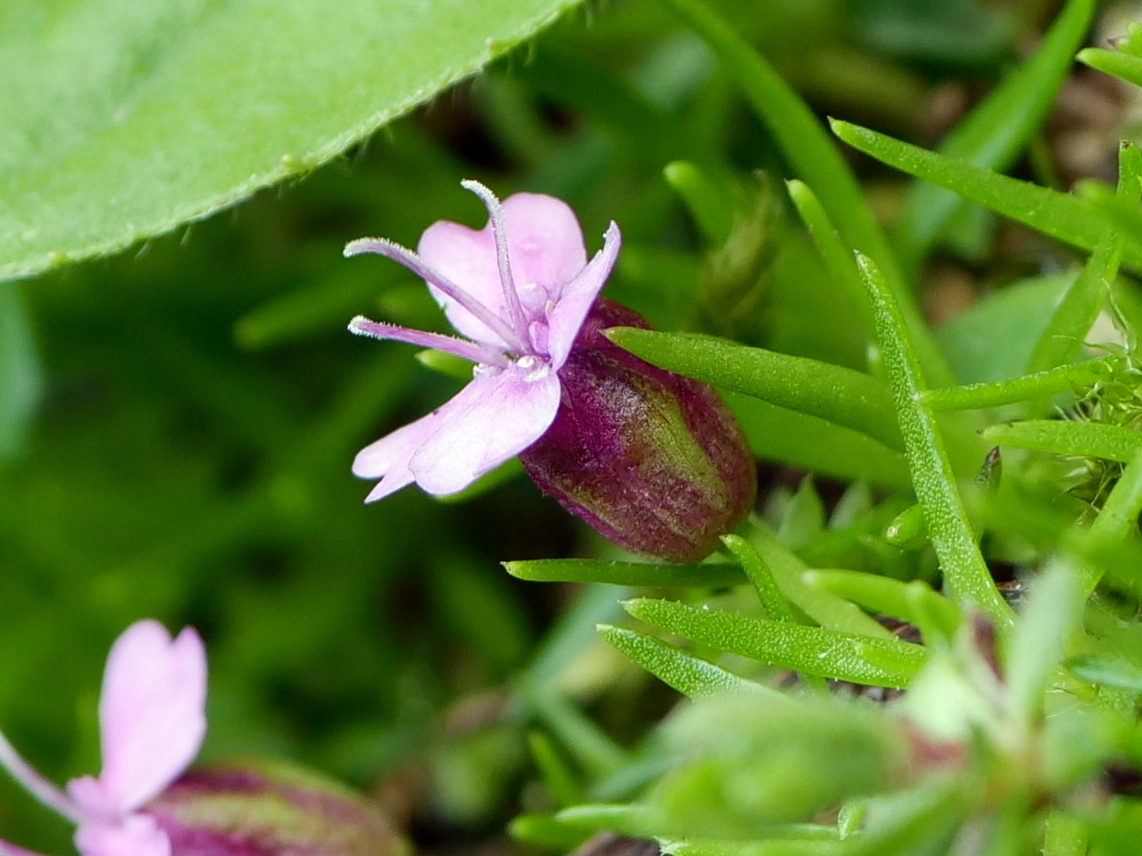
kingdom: Plantae
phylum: Tracheophyta
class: Magnoliopsida
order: Caryophyllales
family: Caryophyllaceae
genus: Silene
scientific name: Silene acaulis
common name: Moss campion
